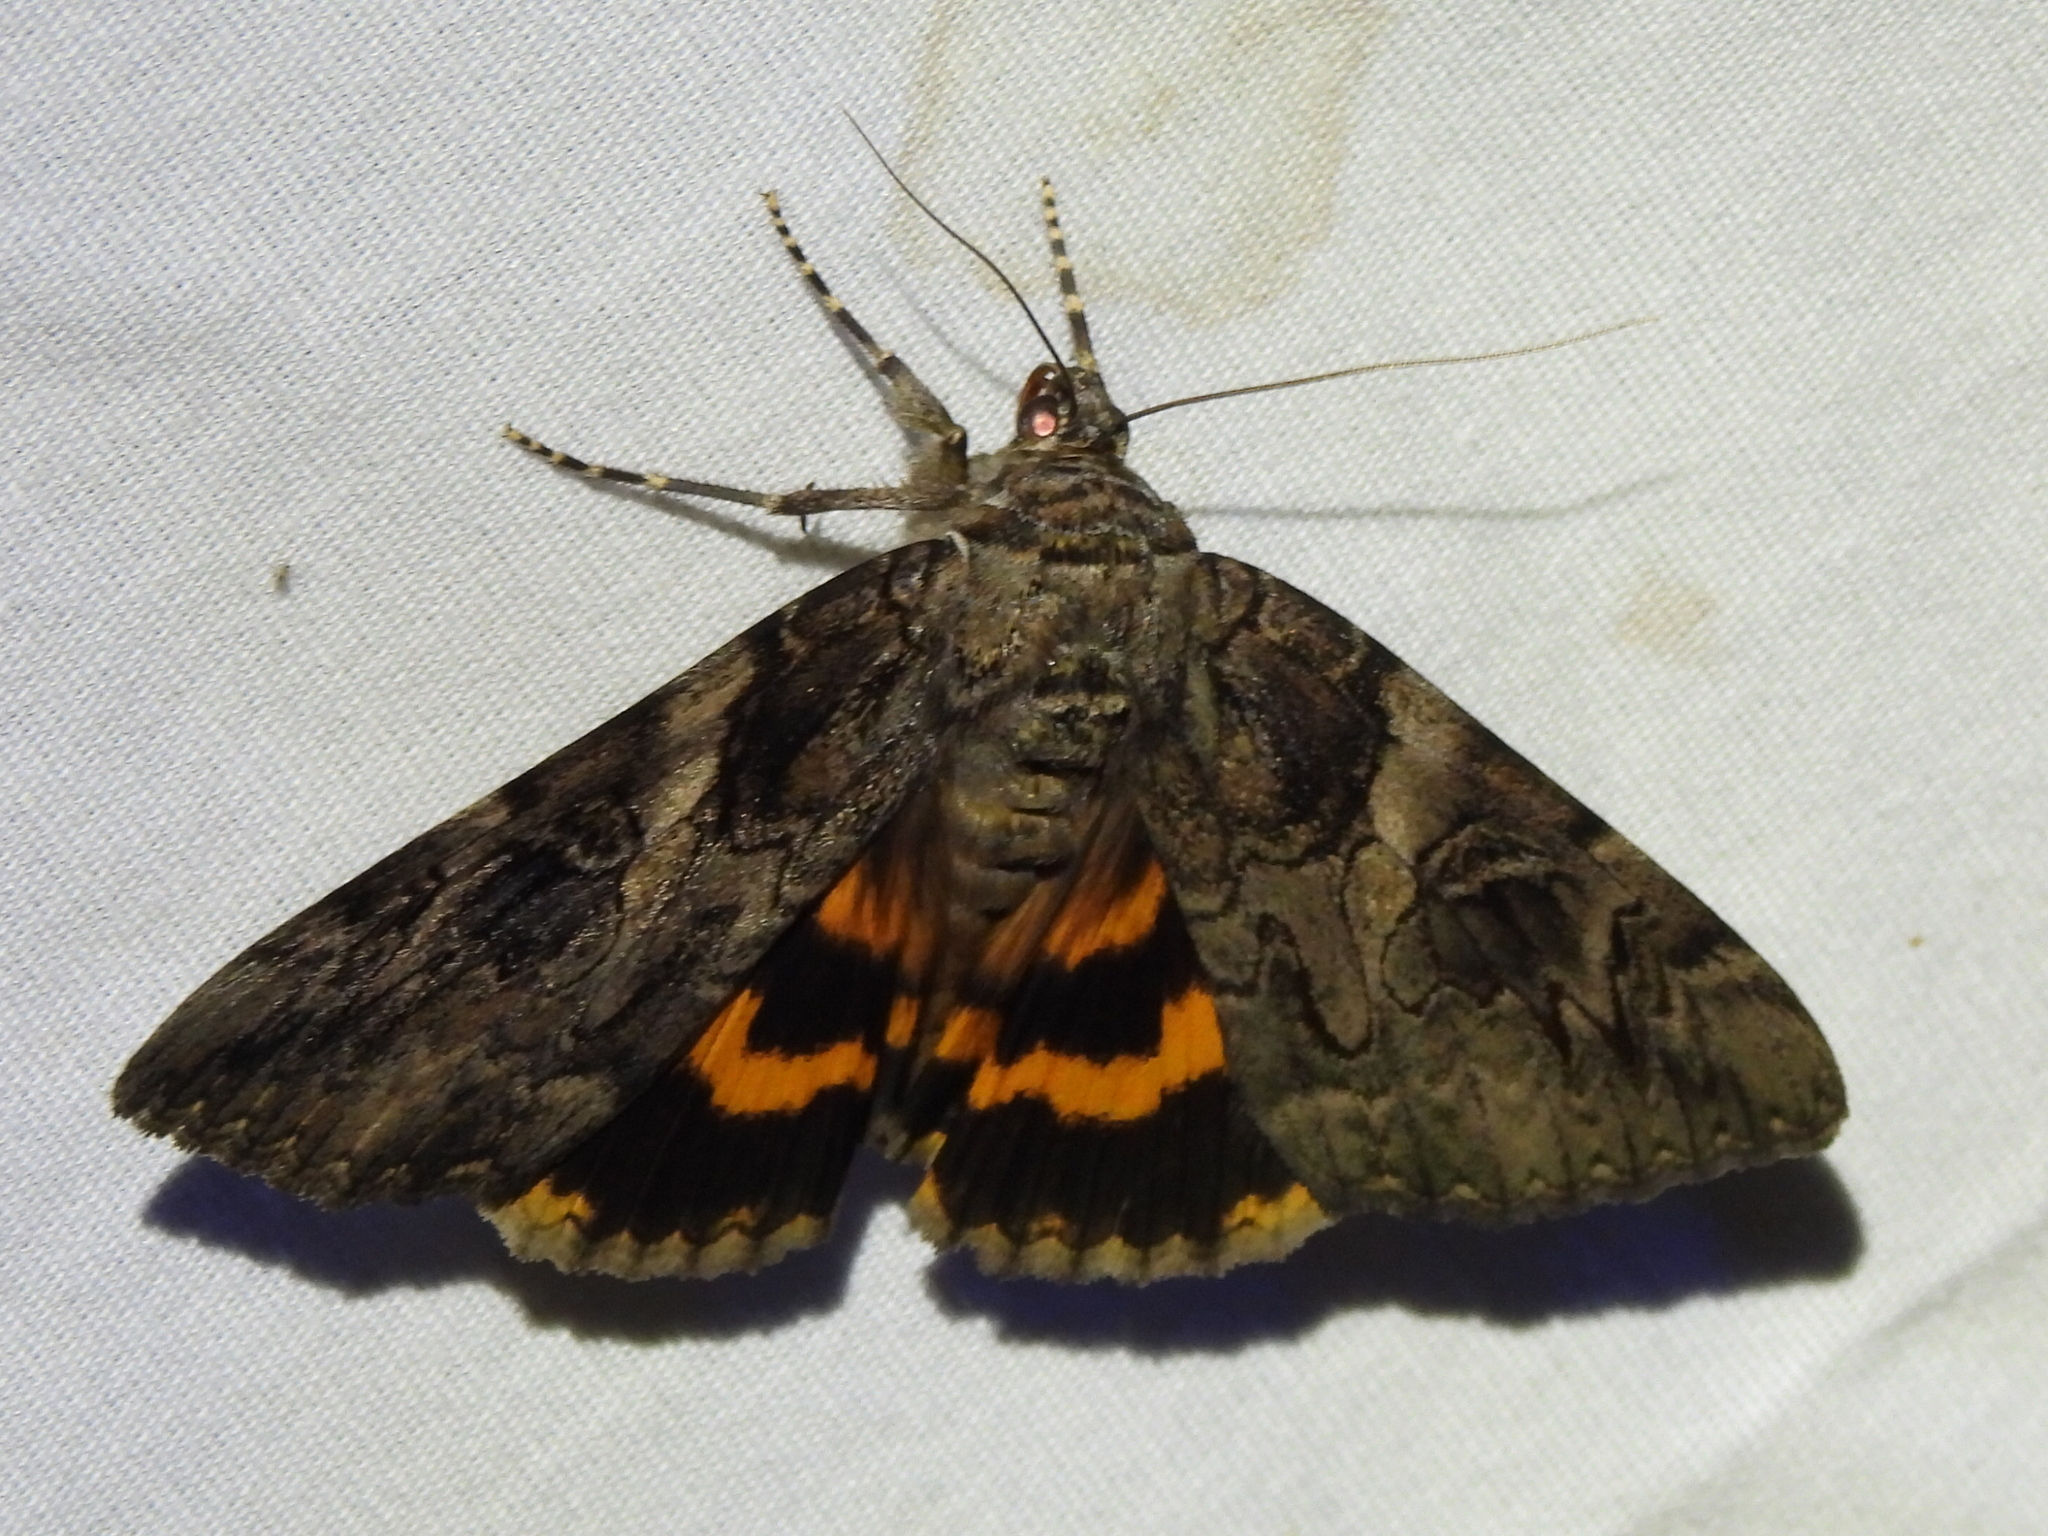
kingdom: Animalia
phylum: Arthropoda
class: Insecta
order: Lepidoptera
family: Erebidae
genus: Catocala
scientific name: Catocala piatrix
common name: The penitent underwing
